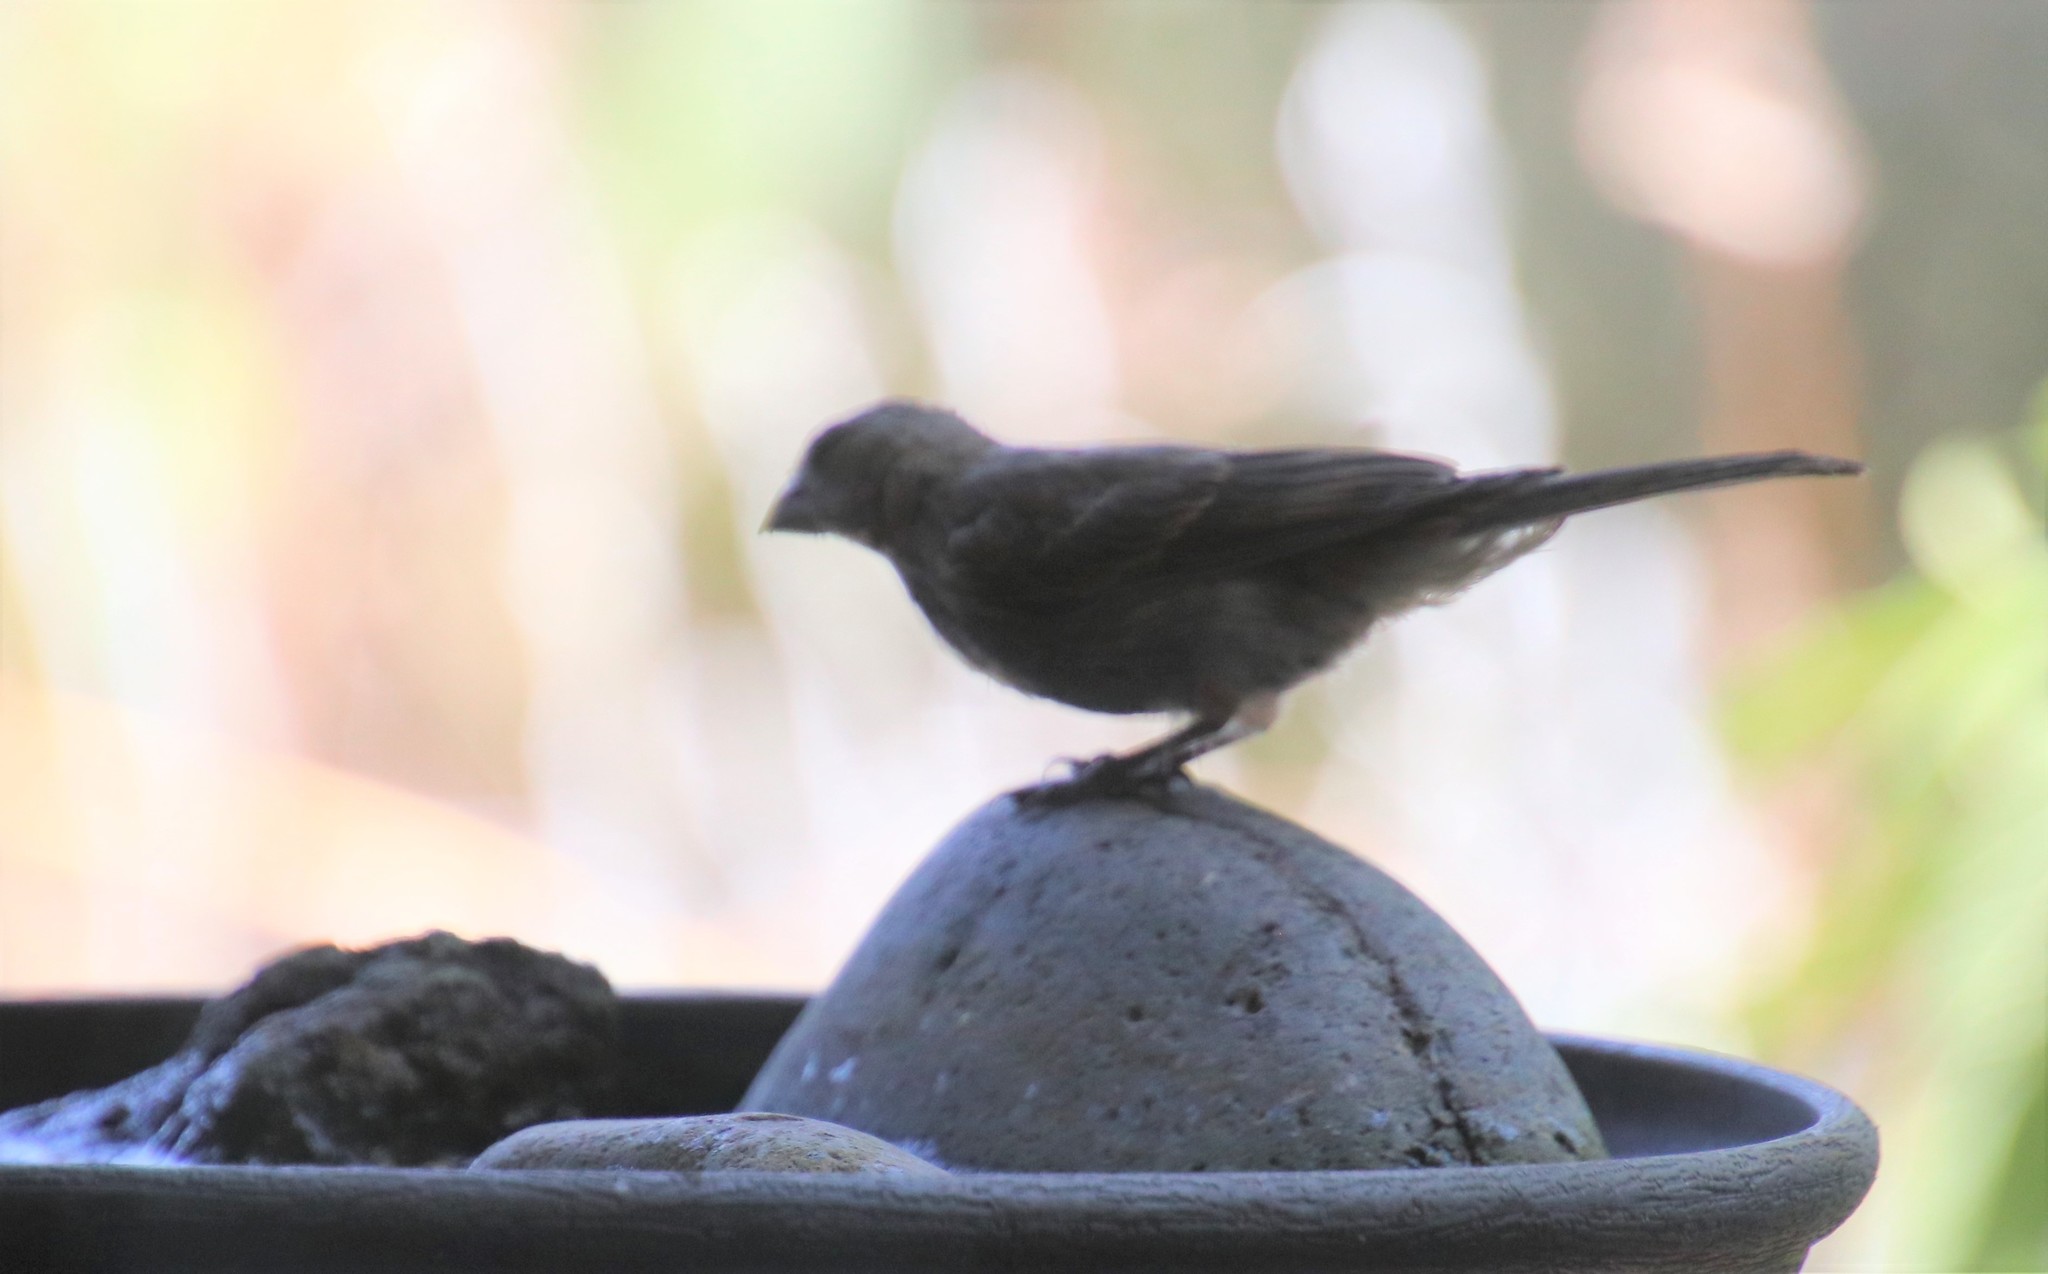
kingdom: Animalia
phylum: Chordata
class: Aves
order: Passeriformes
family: Fringillidae
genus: Haemorhous
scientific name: Haemorhous mexicanus
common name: House finch
